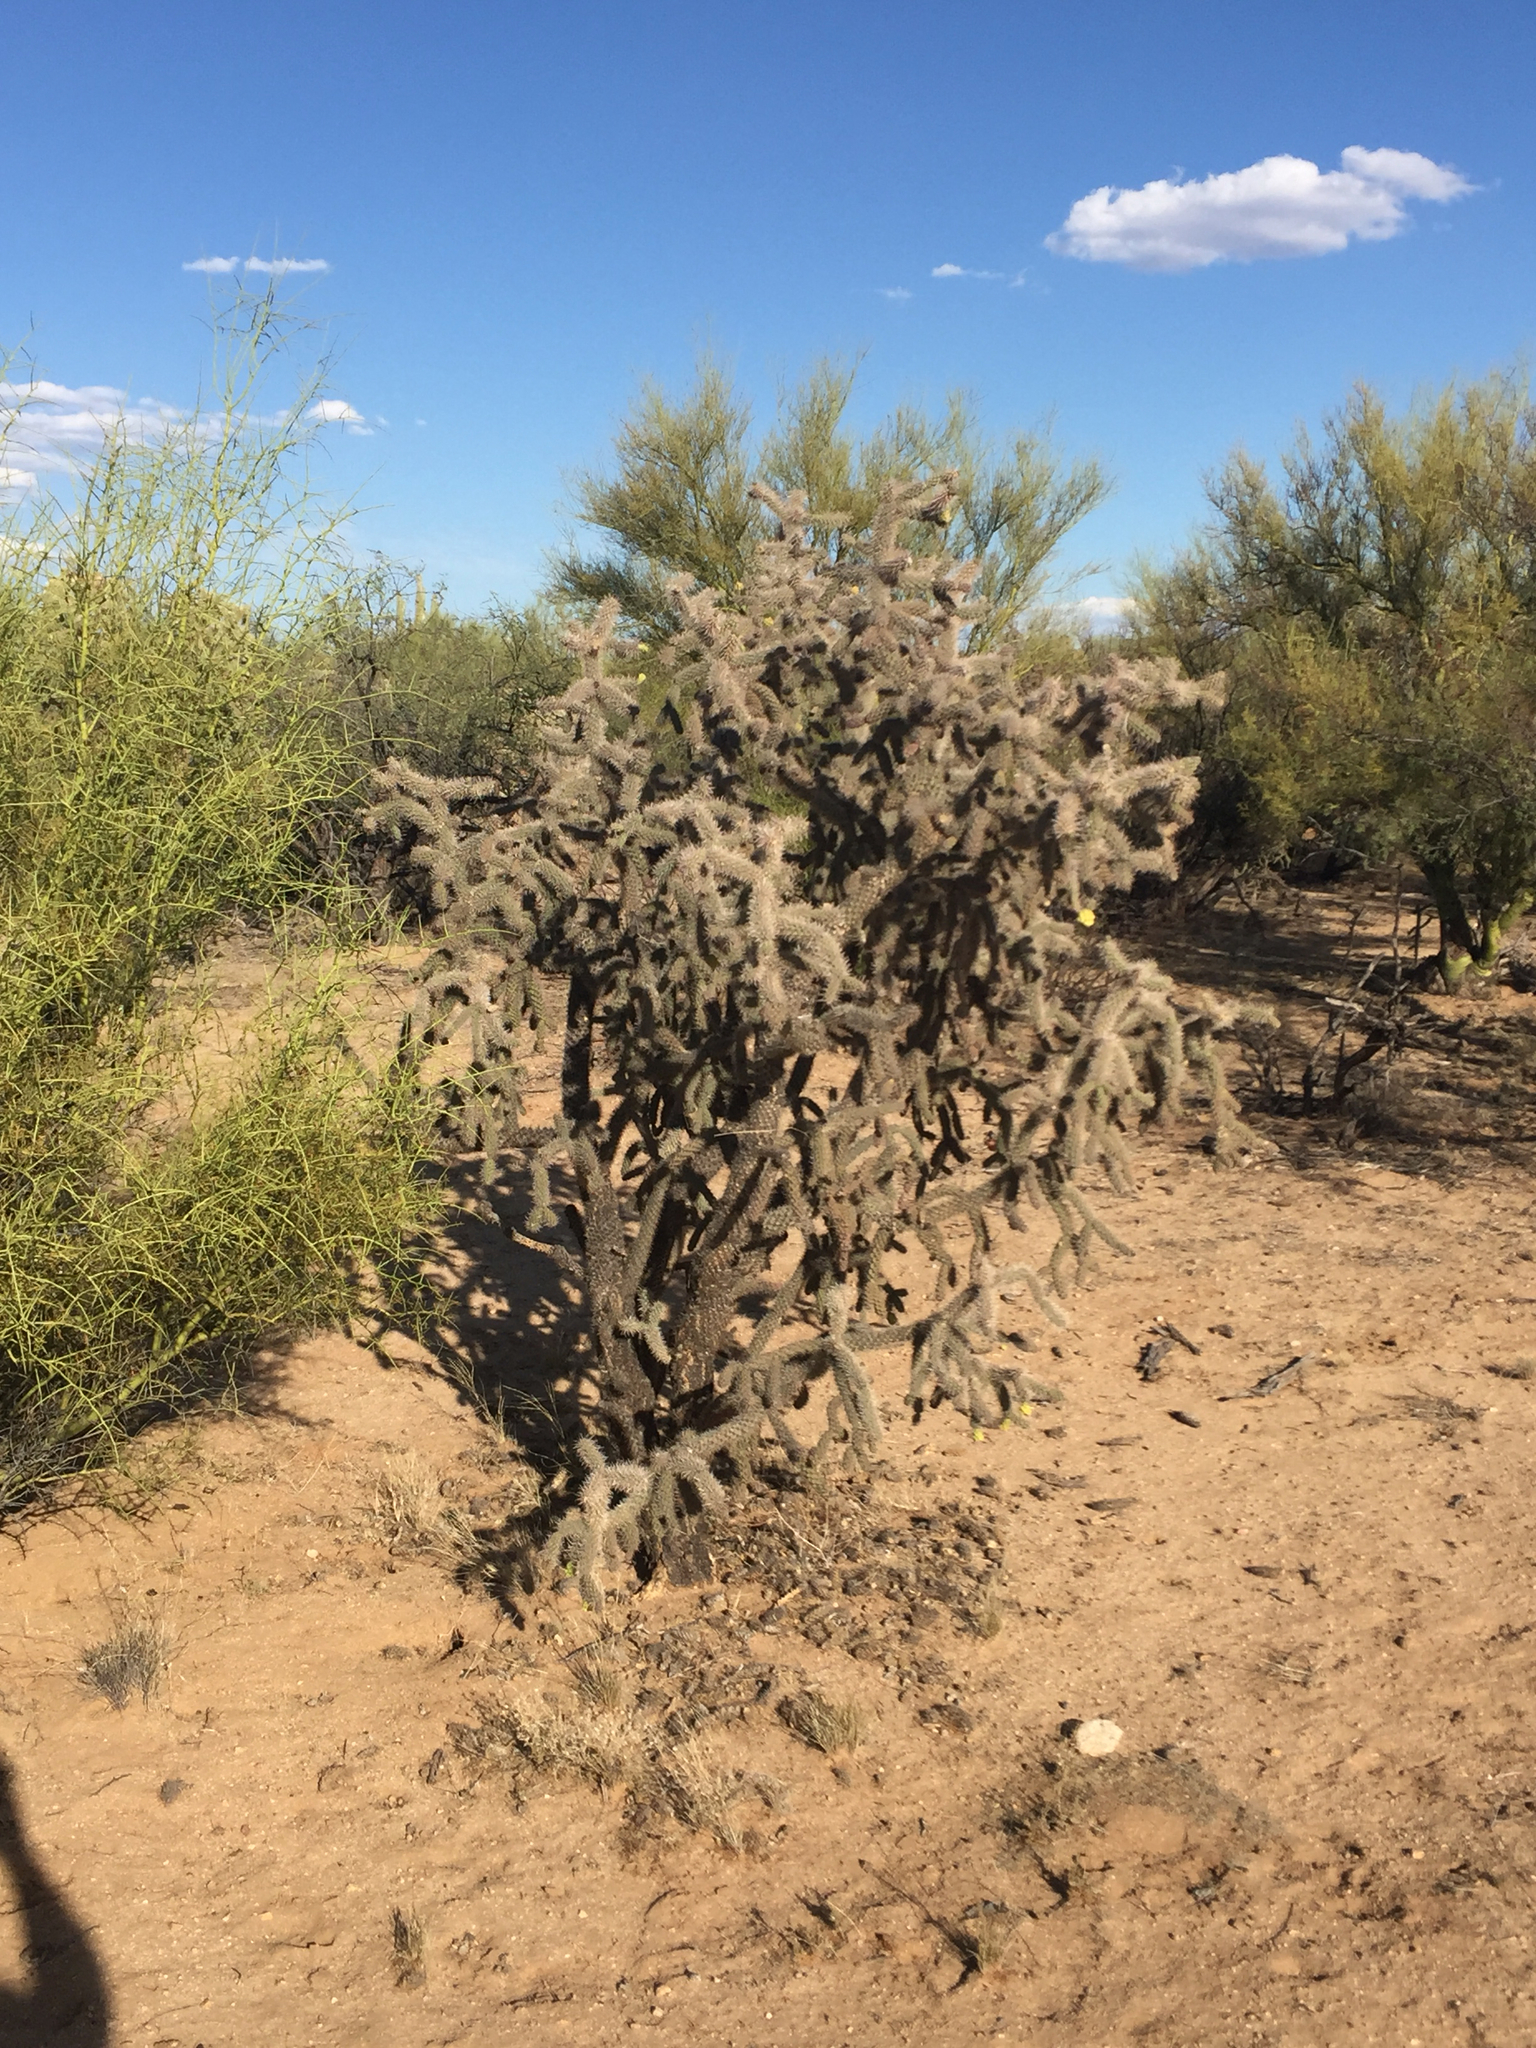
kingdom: Plantae
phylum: Tracheophyta
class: Magnoliopsida
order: Caryophyllales
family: Cactaceae
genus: Cylindropuntia
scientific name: Cylindropuntia kelvinensis
